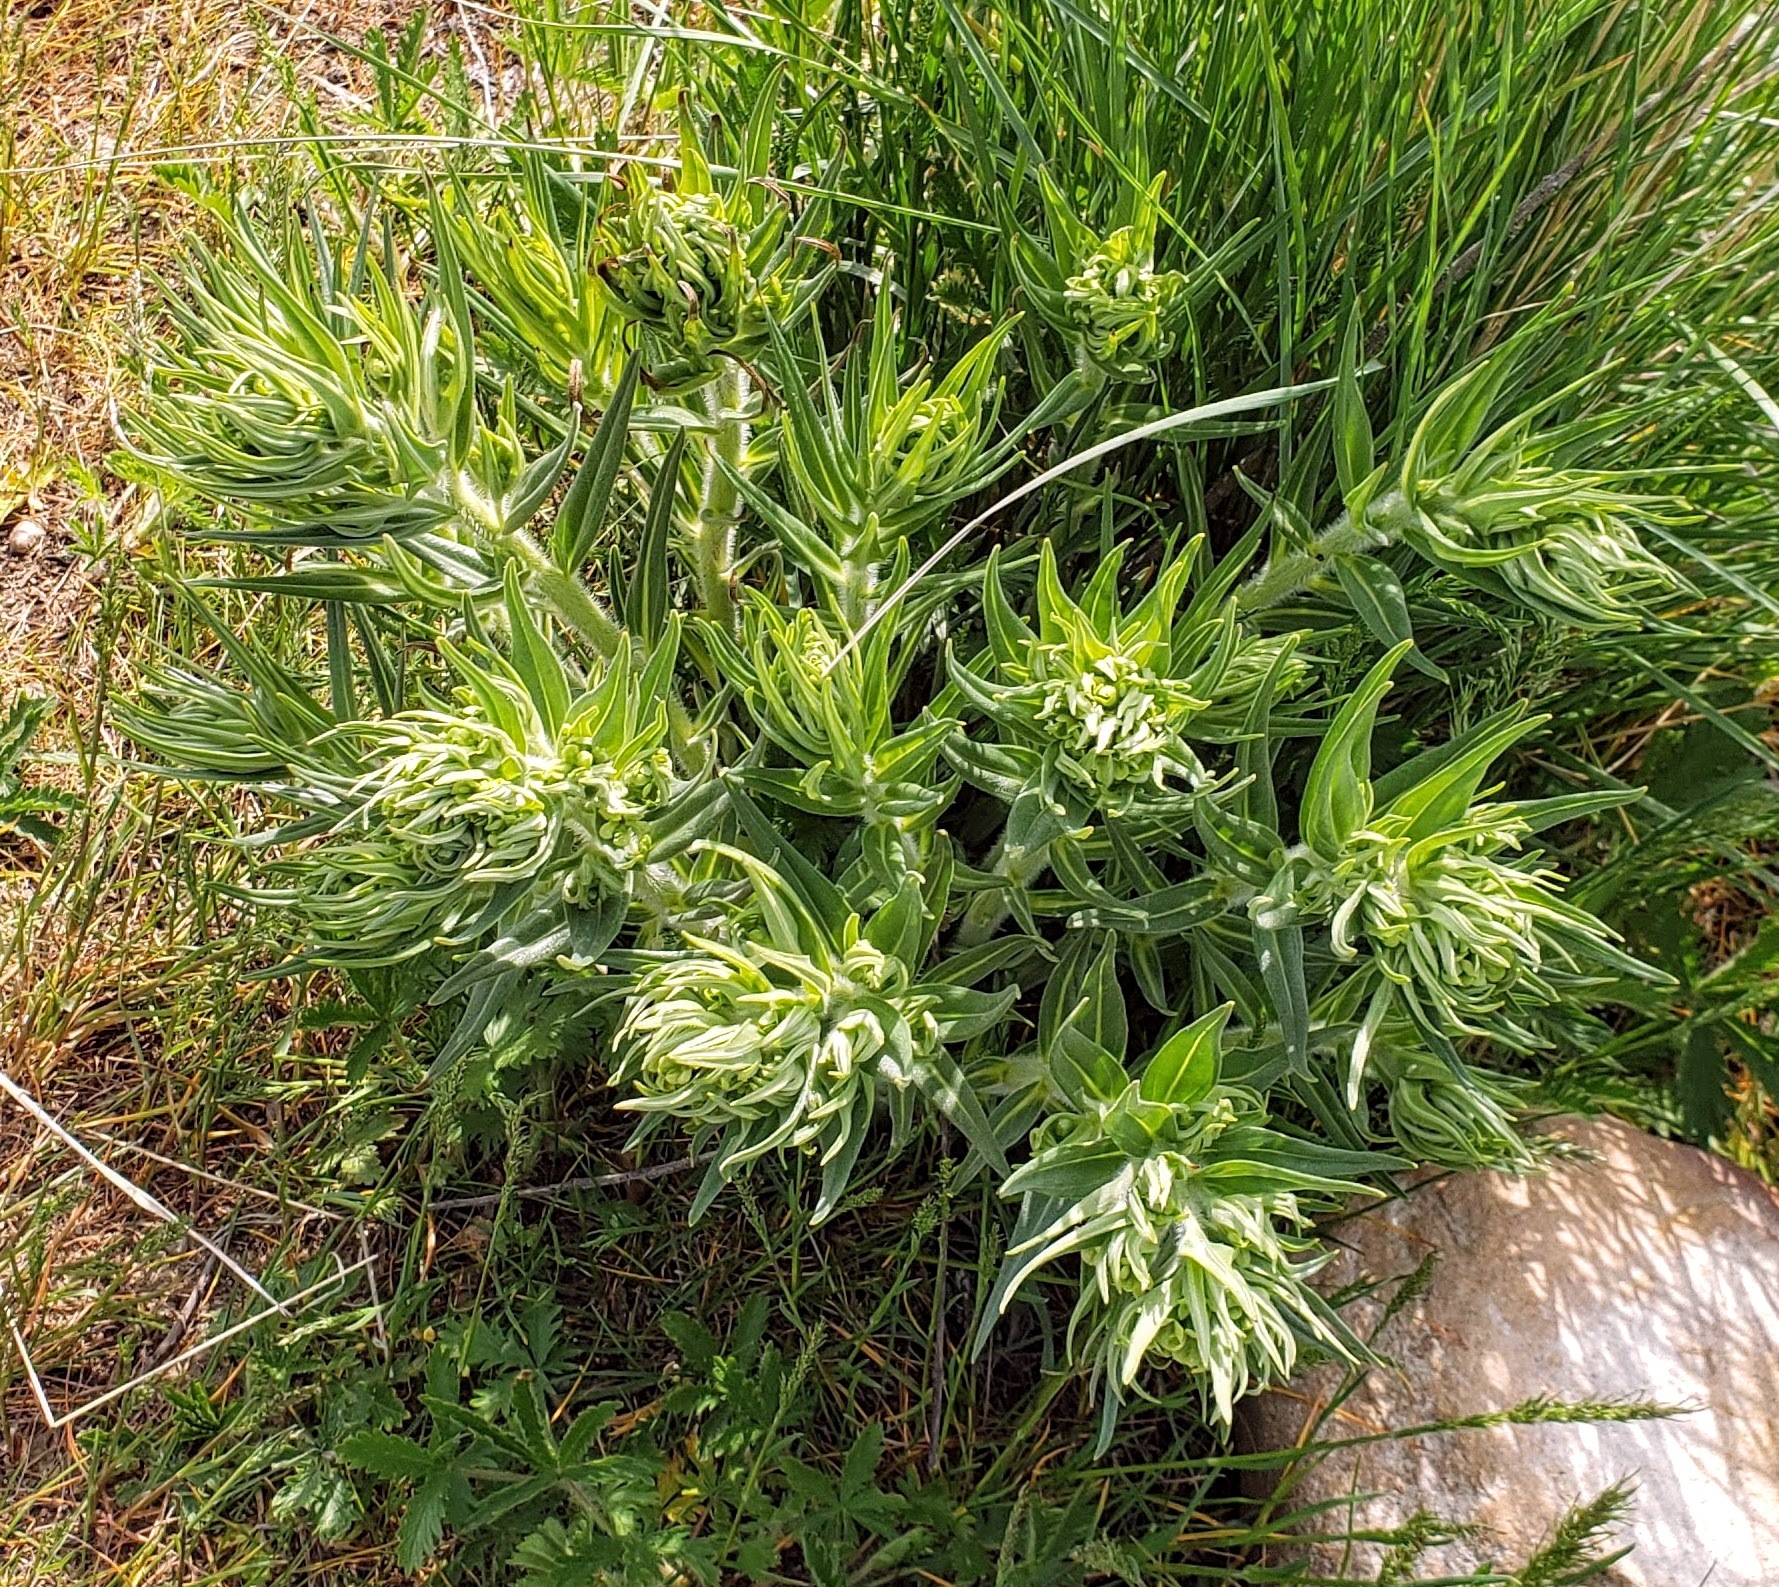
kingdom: Plantae
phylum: Tracheophyta
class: Magnoliopsida
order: Boraginales
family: Boraginaceae
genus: Lithospermum
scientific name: Lithospermum ruderale
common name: Western gromwell
